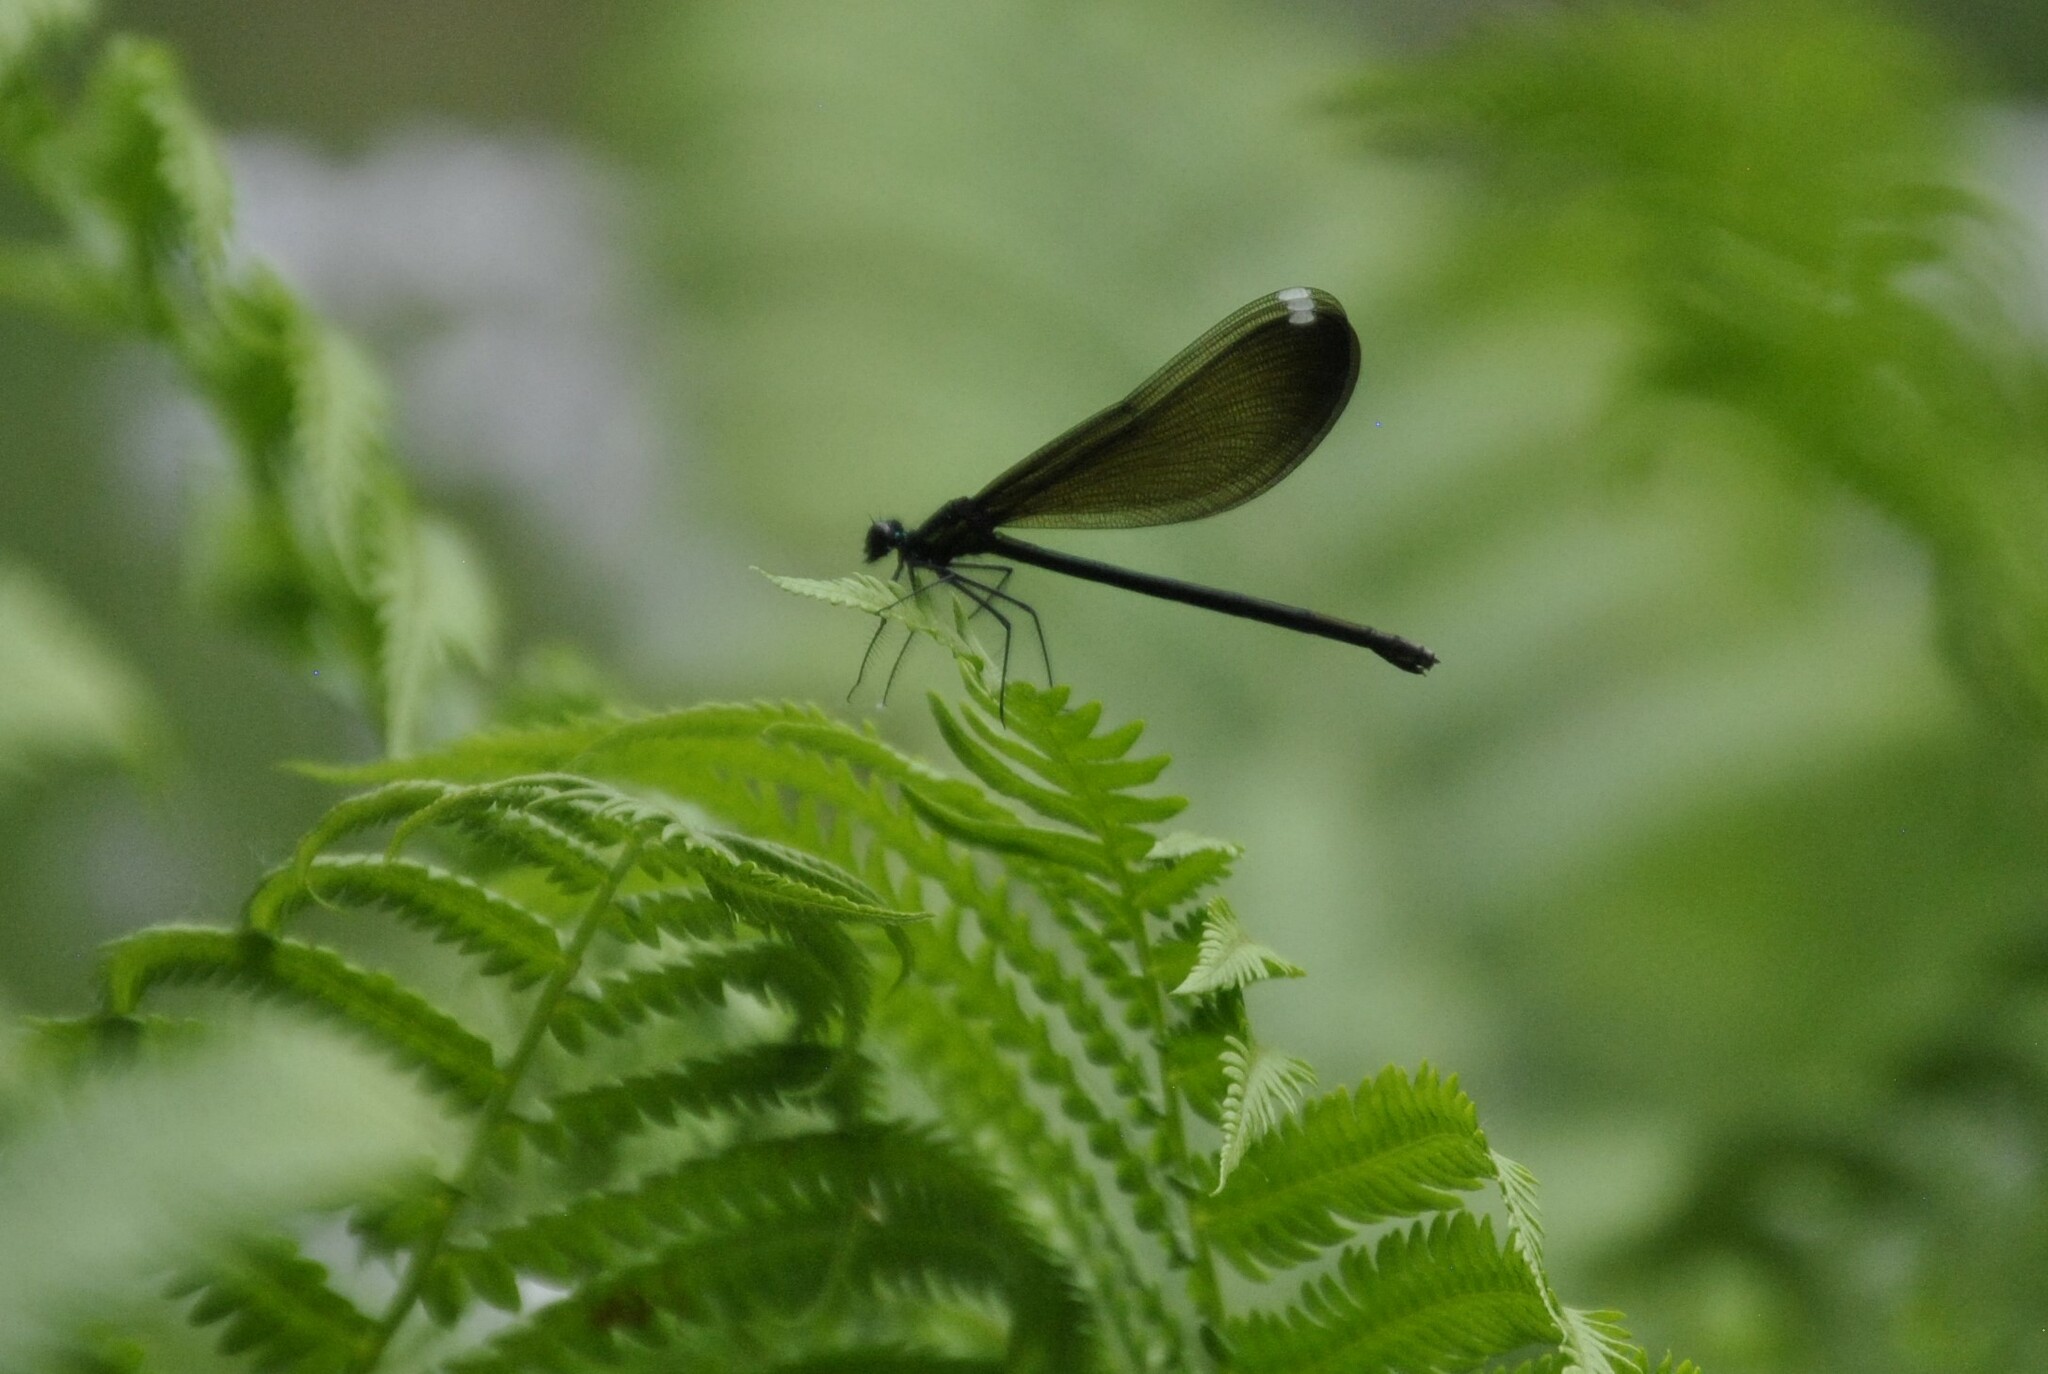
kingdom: Animalia
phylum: Arthropoda
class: Insecta
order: Odonata
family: Calopterygidae
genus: Calopteryx
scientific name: Calopteryx maculata
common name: Ebony jewelwing
